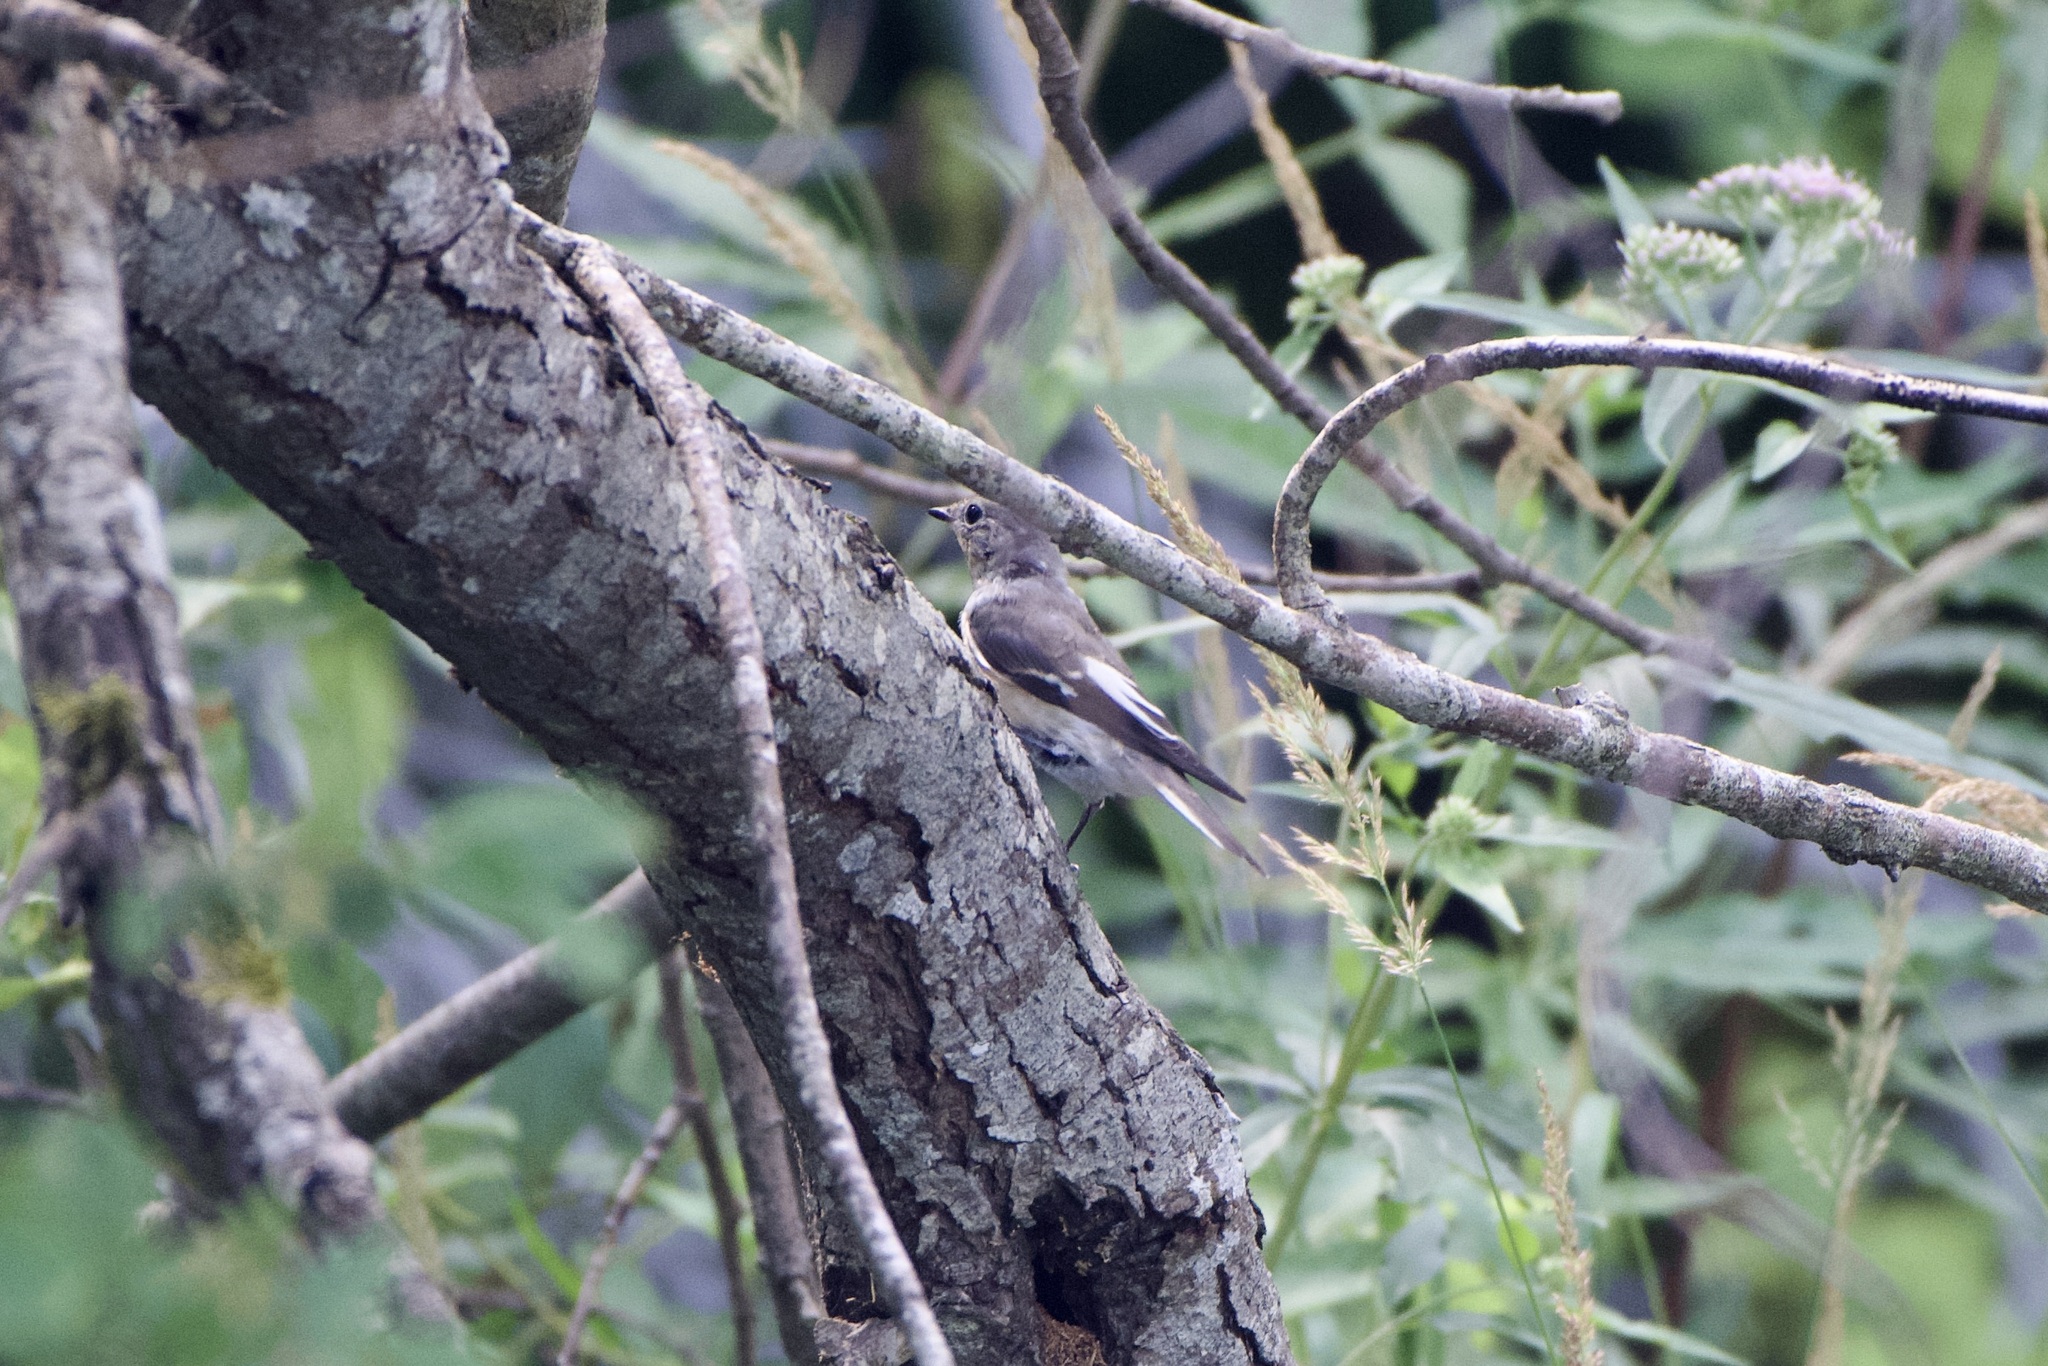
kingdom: Animalia
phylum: Chordata
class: Aves
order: Passeriformes
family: Muscicapidae
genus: Ficedula
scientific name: Ficedula albicollis
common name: Collared flycatcher
